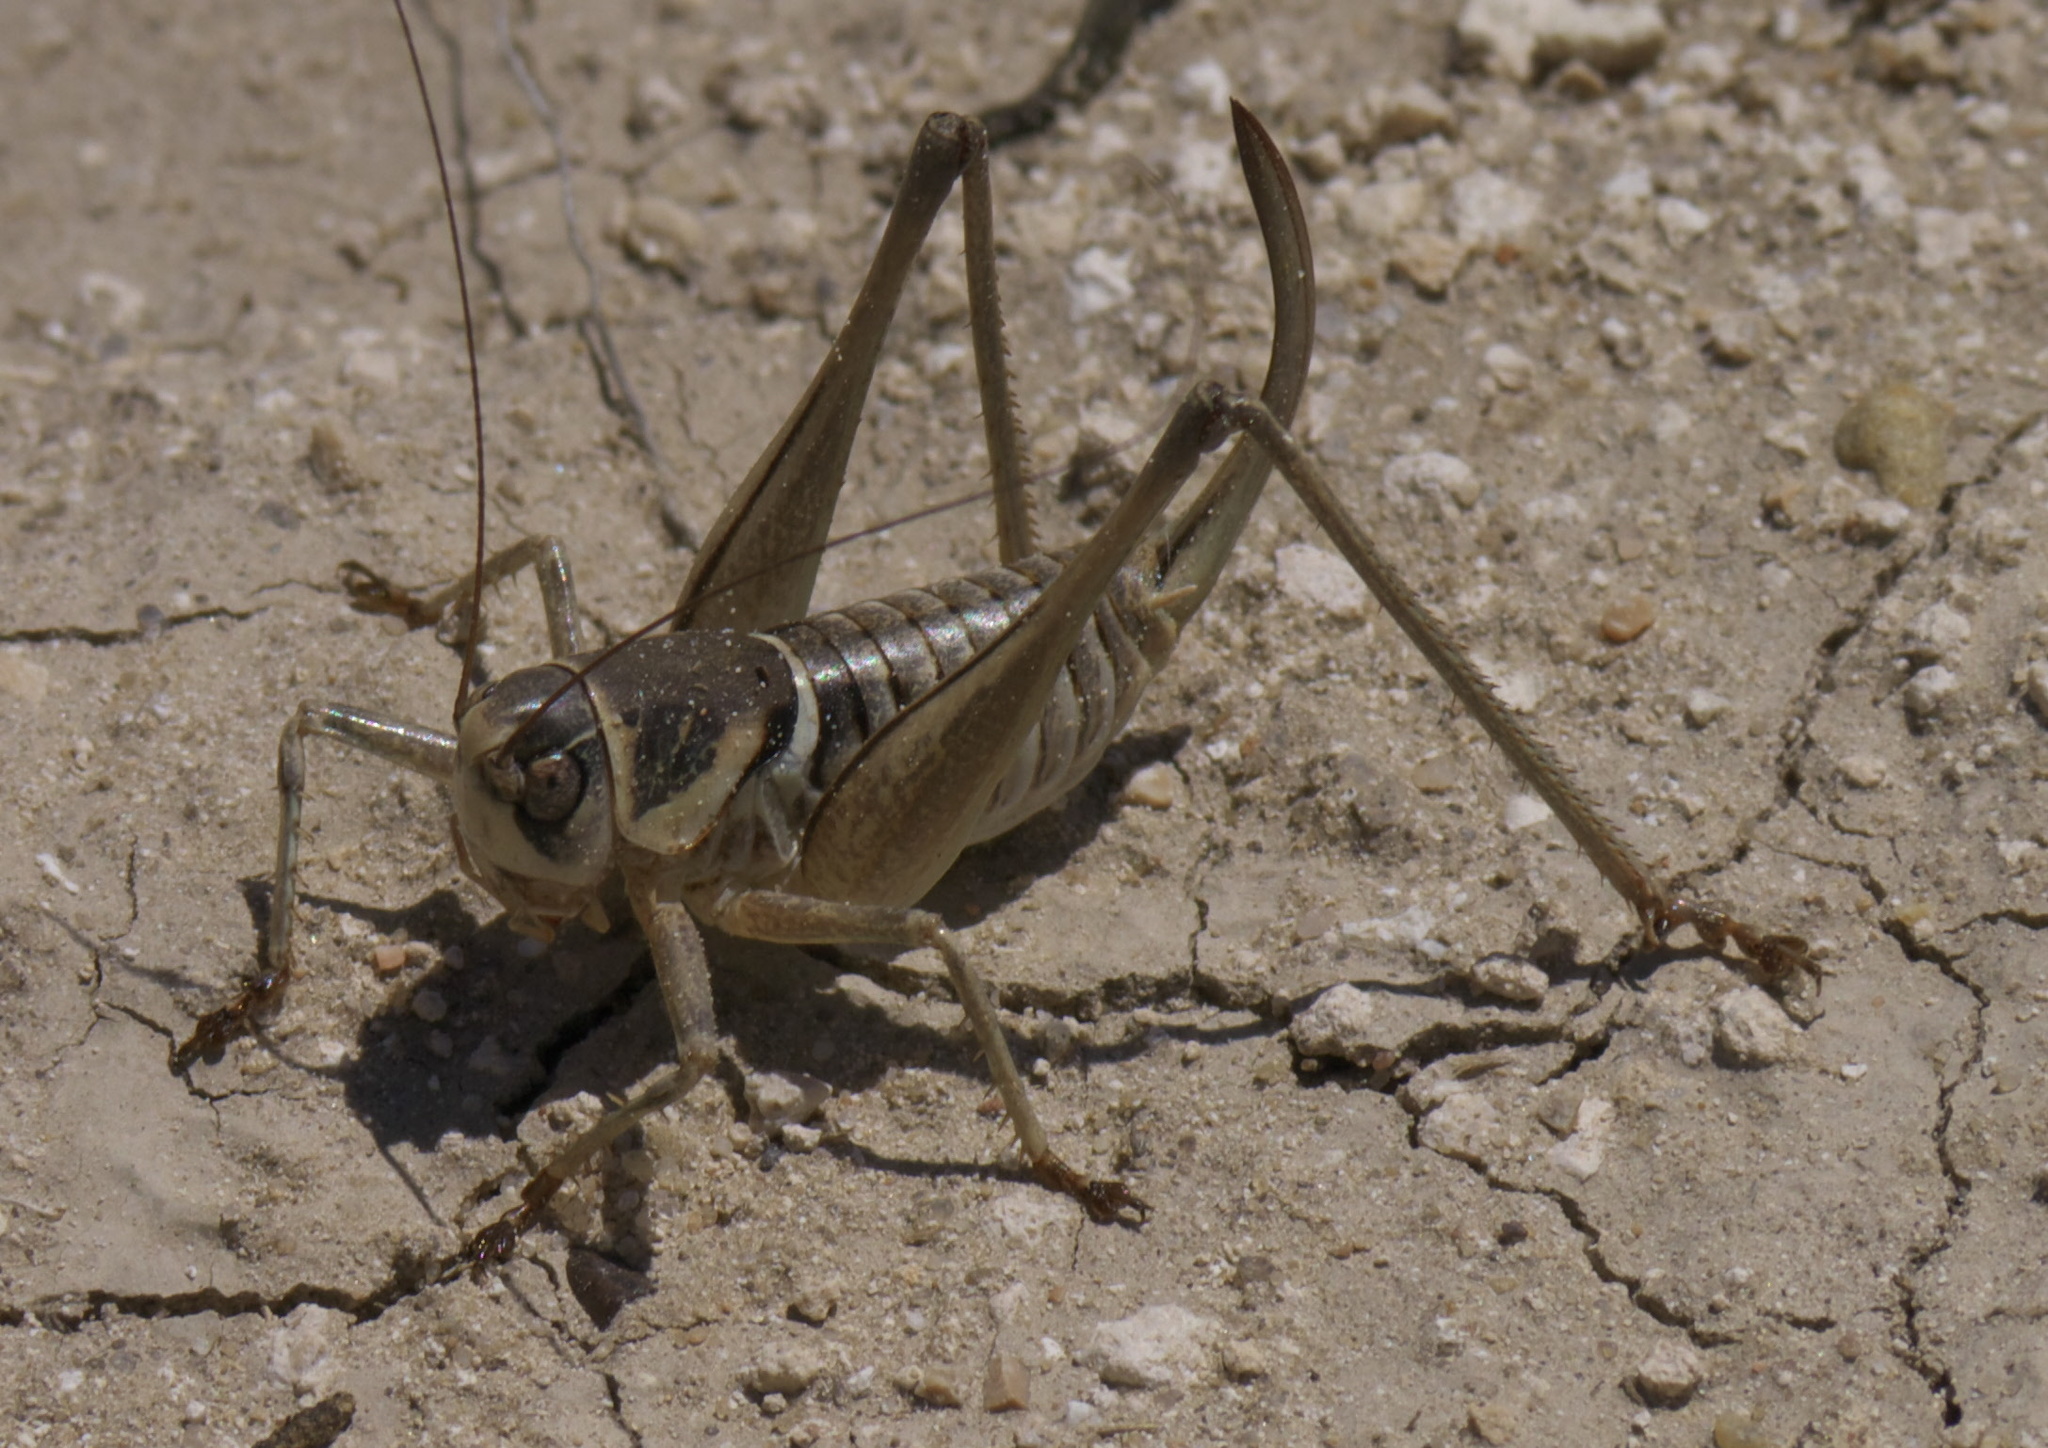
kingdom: Animalia
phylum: Arthropoda
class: Insecta
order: Orthoptera
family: Tettigoniidae
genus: Pediodectes
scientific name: Pediodectes stevensonii
